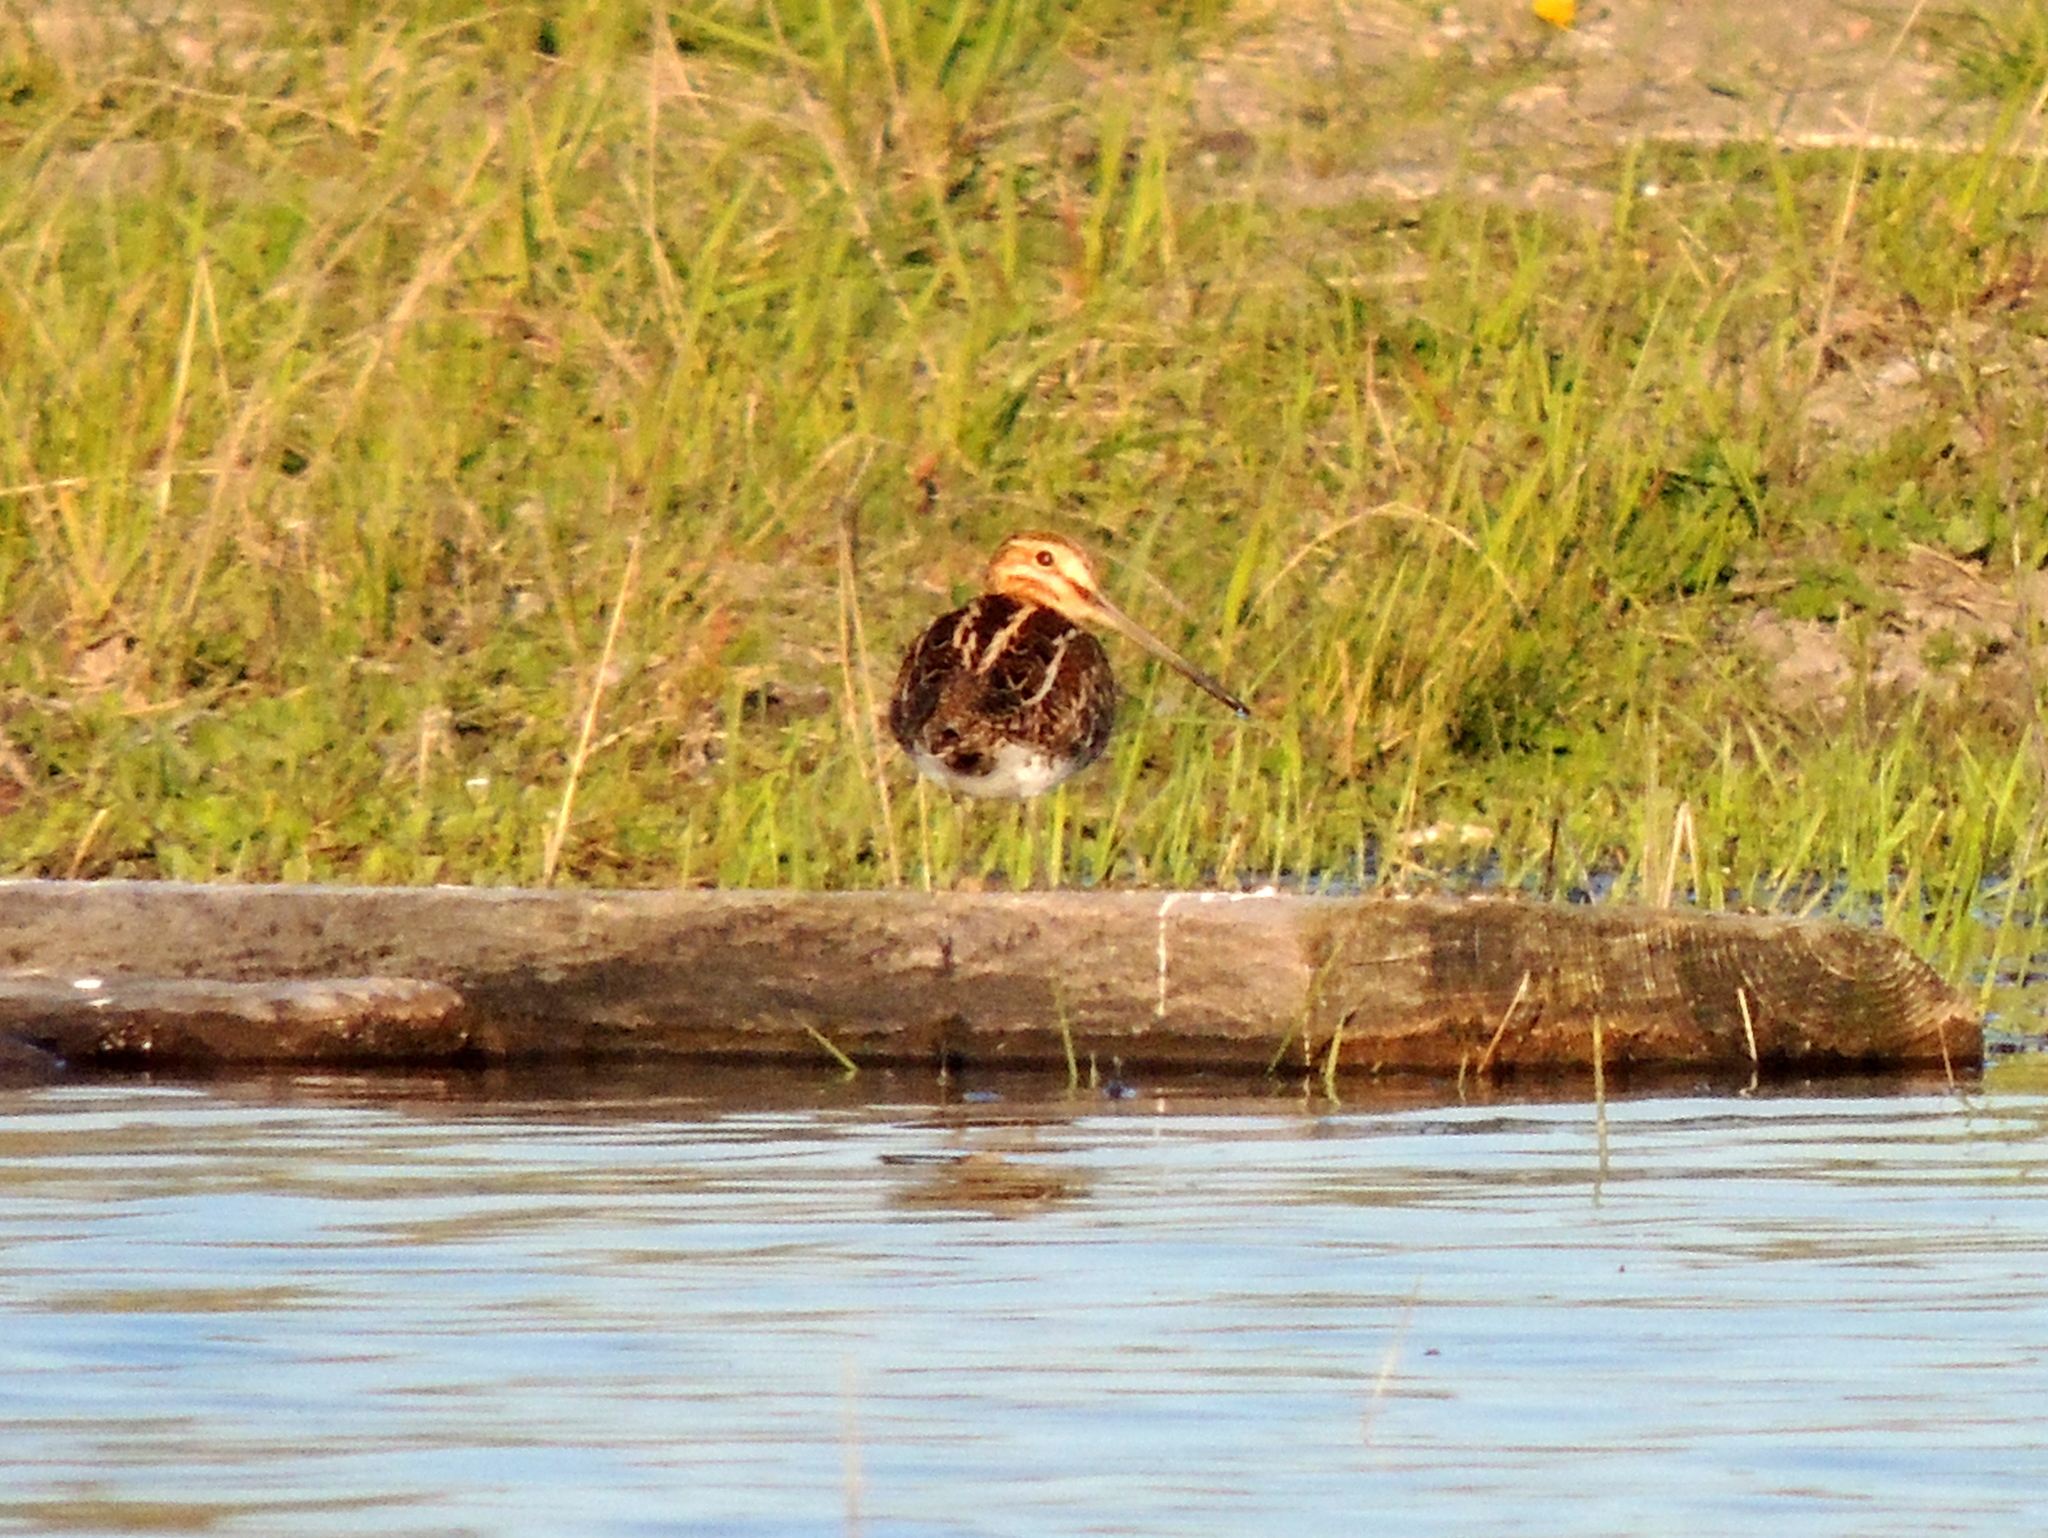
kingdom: Animalia
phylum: Chordata
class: Aves
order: Charadriiformes
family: Scolopacidae
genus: Gallinago
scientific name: Gallinago gallinago
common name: Common snipe
